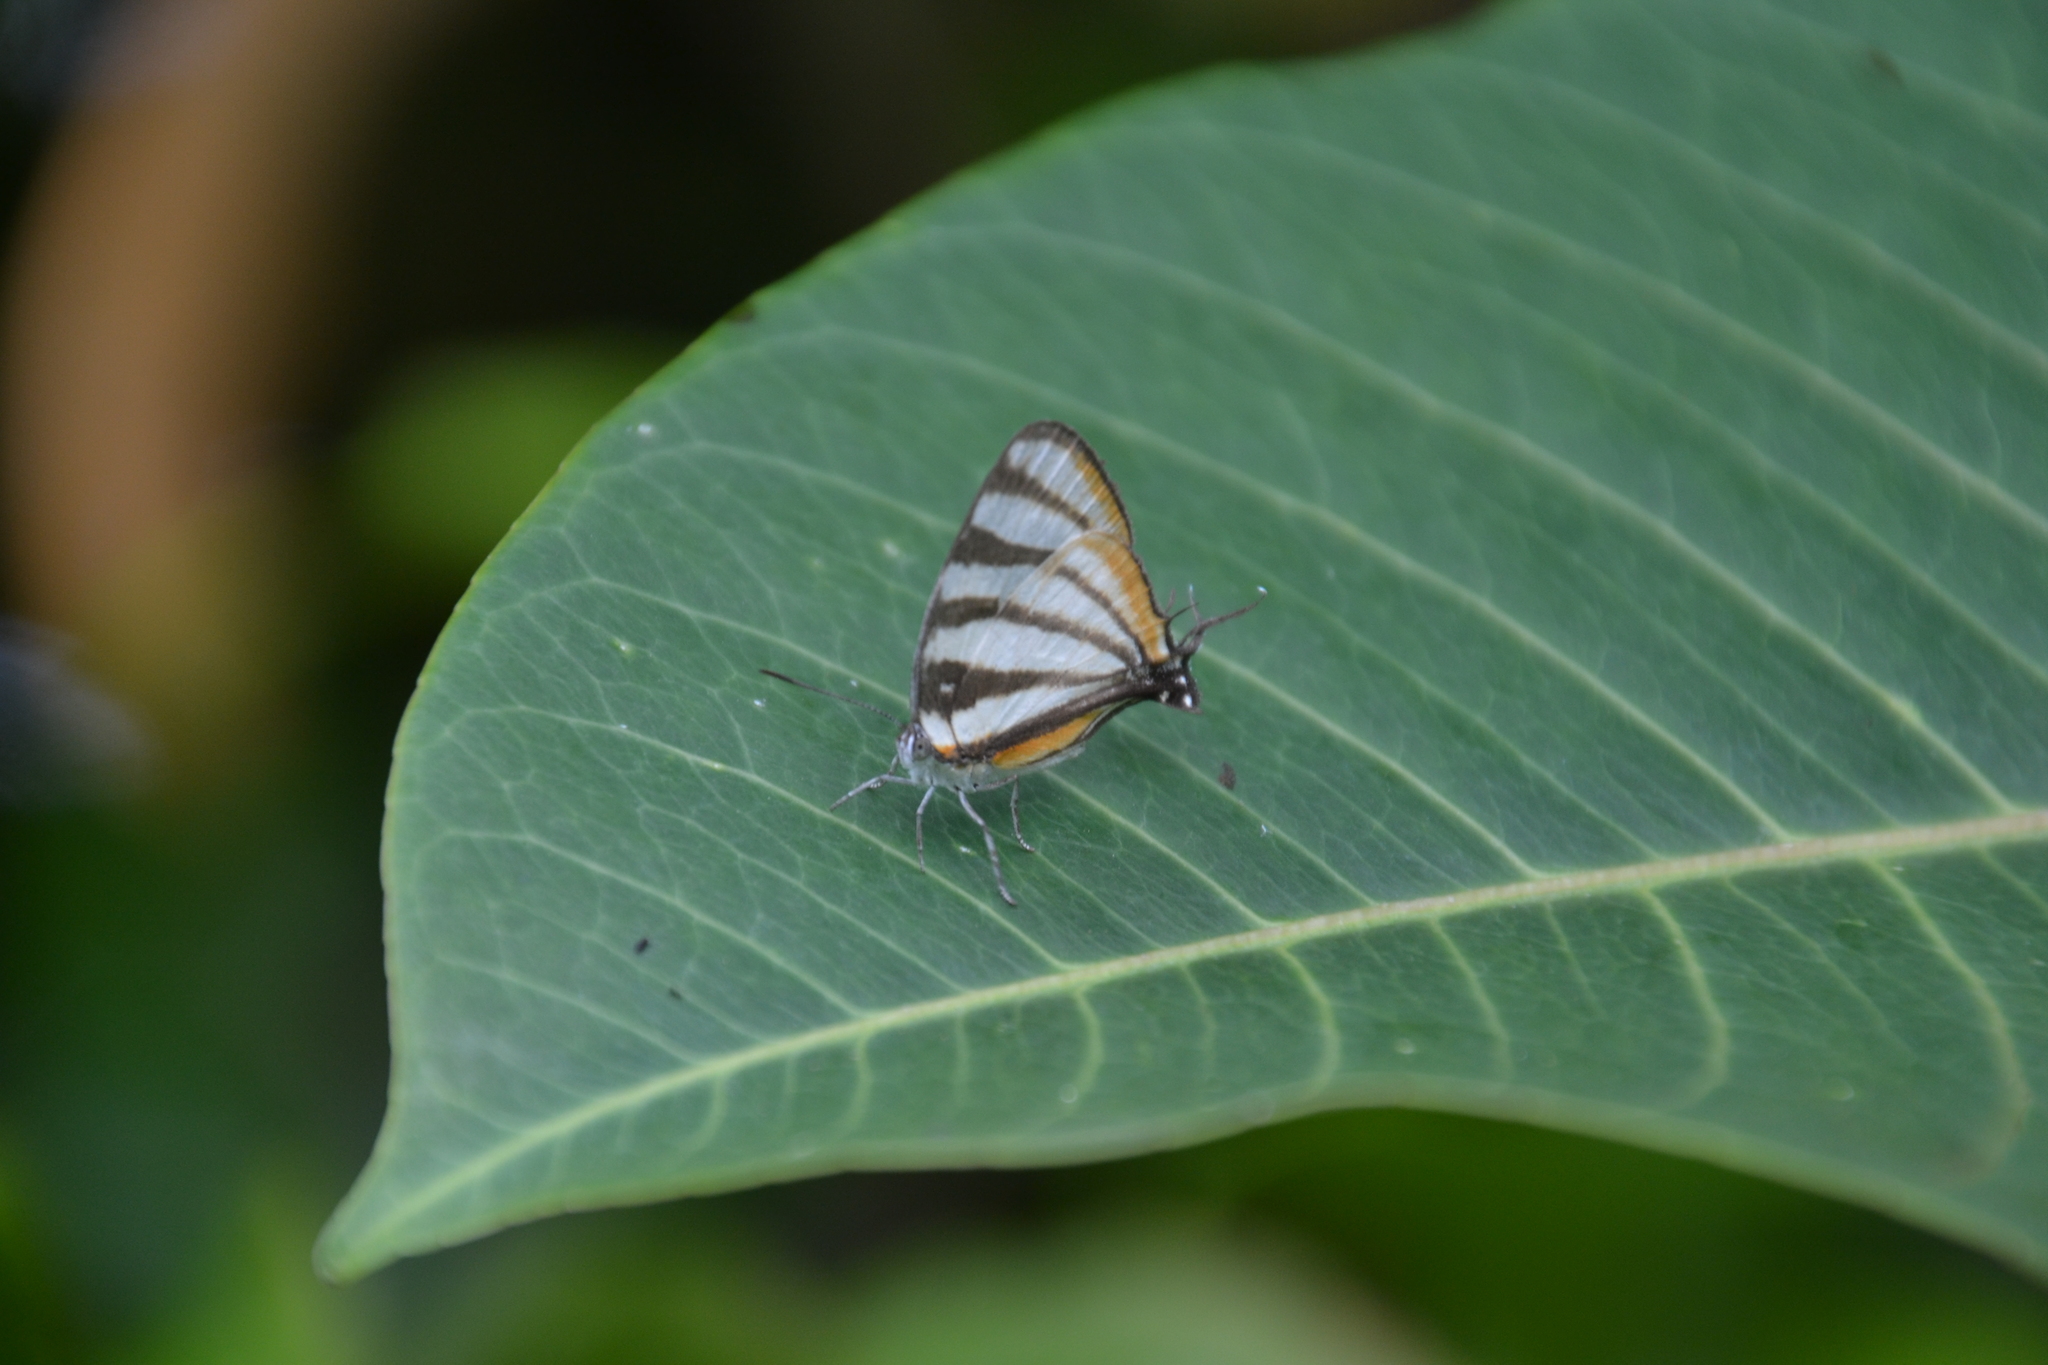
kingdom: Animalia
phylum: Arthropoda
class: Insecta
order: Lepidoptera
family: Lycaenidae
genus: Arawacus
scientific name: Arawacus togarna
